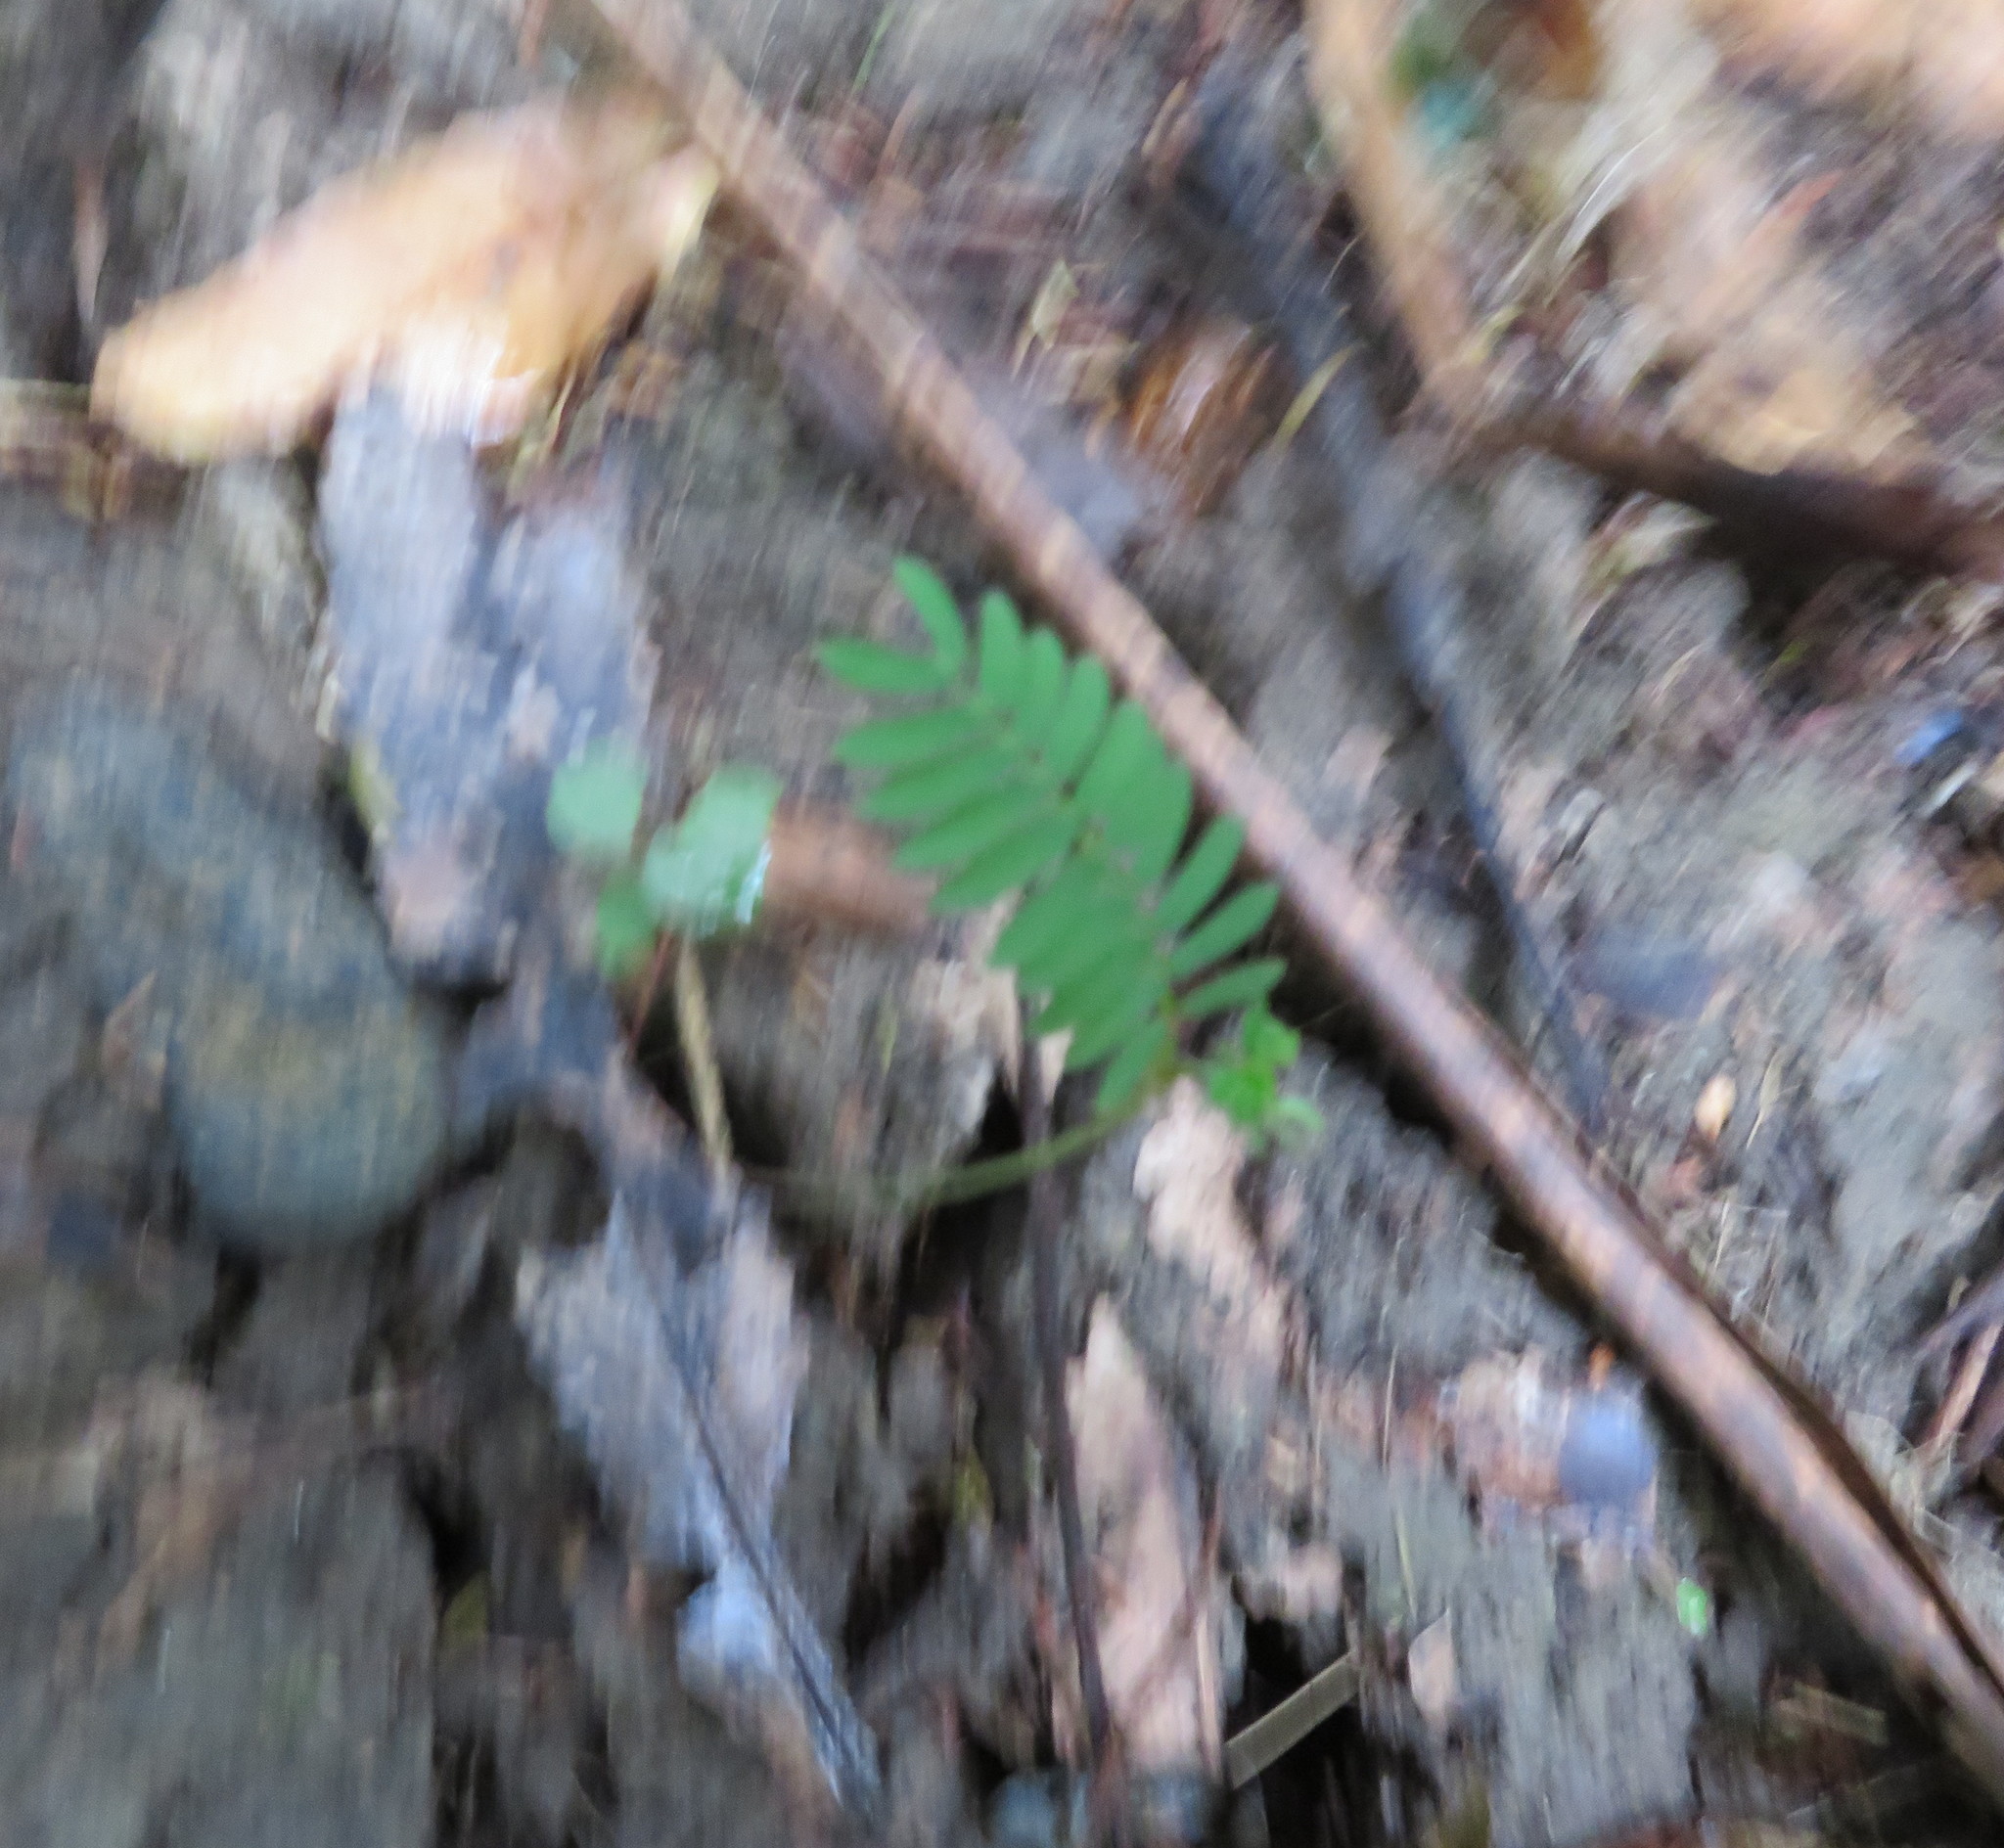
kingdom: Plantae
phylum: Tracheophyta
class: Magnoliopsida
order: Fabales
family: Fabaceae
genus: Paraserianthes
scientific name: Paraserianthes lophantha
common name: Plume albizia
